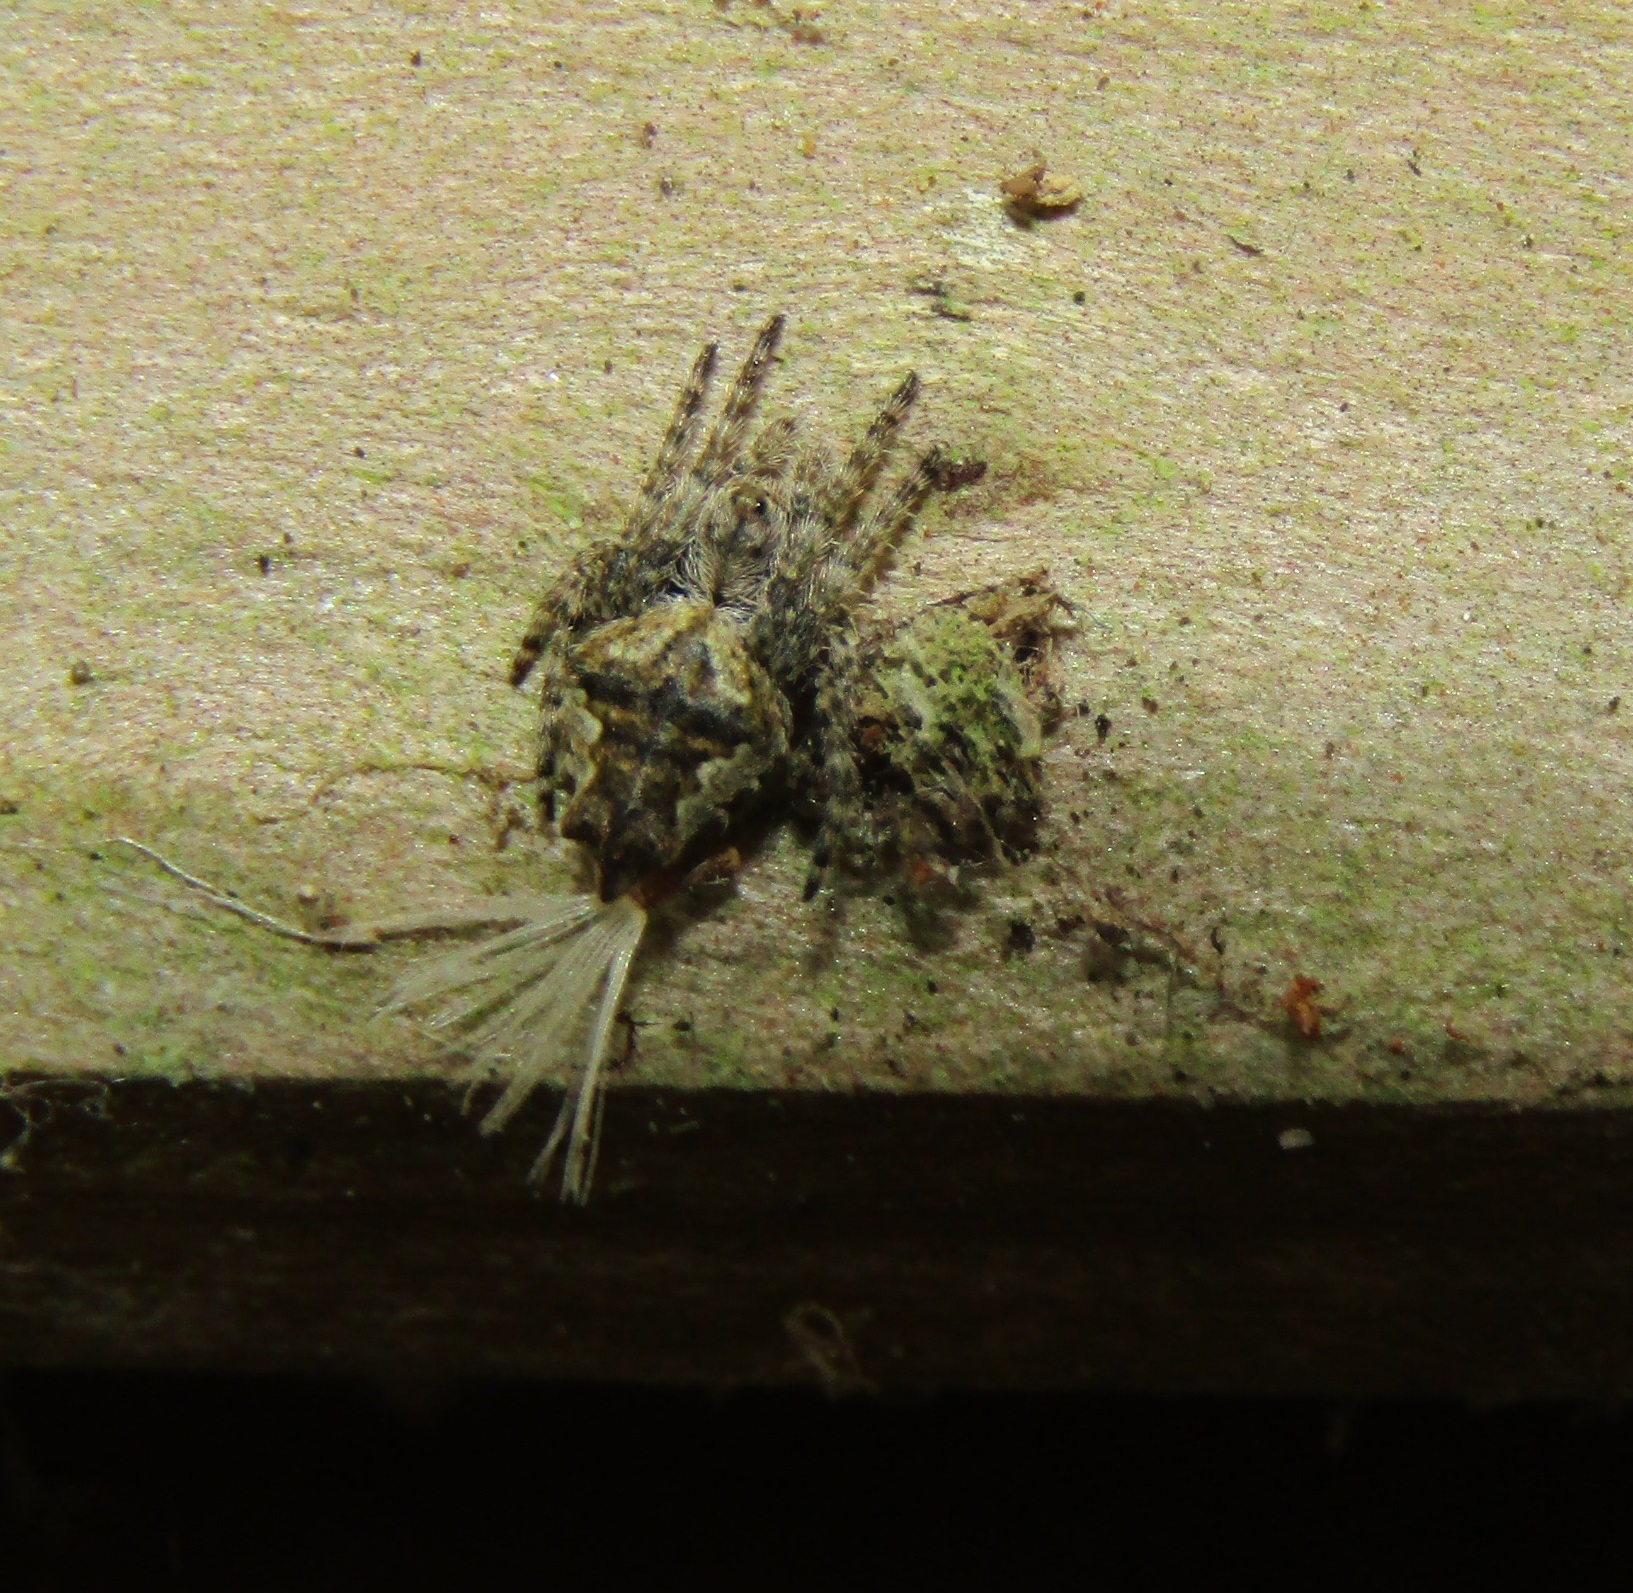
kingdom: Animalia
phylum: Arthropoda
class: Arachnida
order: Araneae
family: Araneidae
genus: Eriophora
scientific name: Eriophora pustulosa
